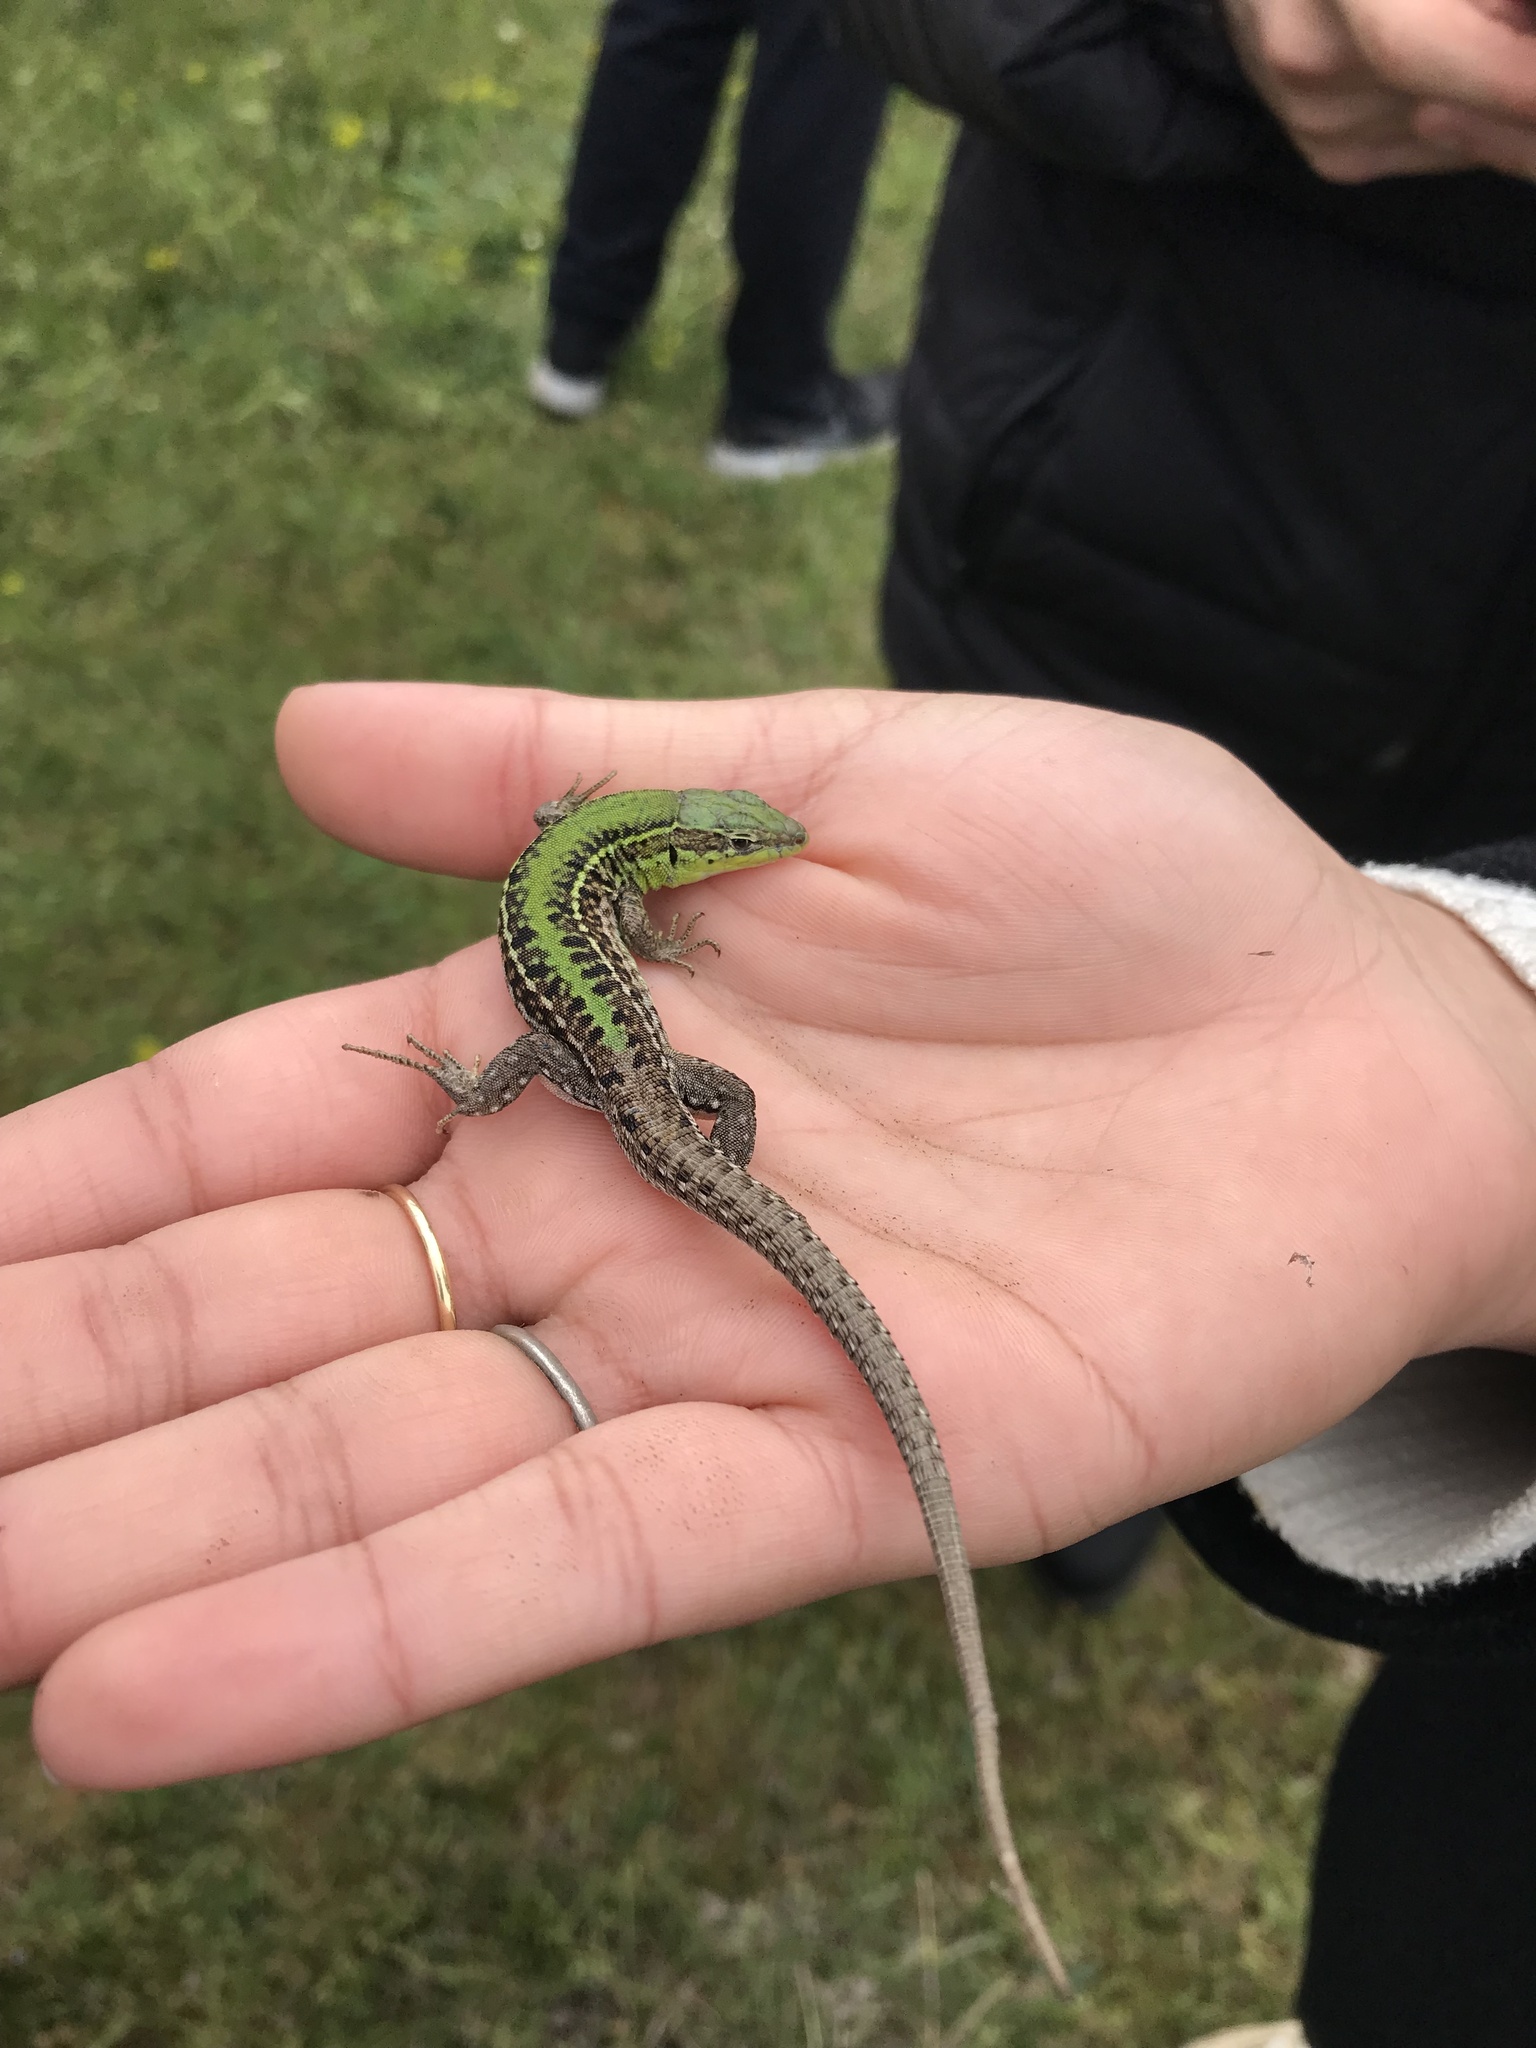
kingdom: Animalia
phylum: Chordata
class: Squamata
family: Lacertidae
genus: Podarcis
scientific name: Podarcis tauricus
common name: Balkan wall lizard
